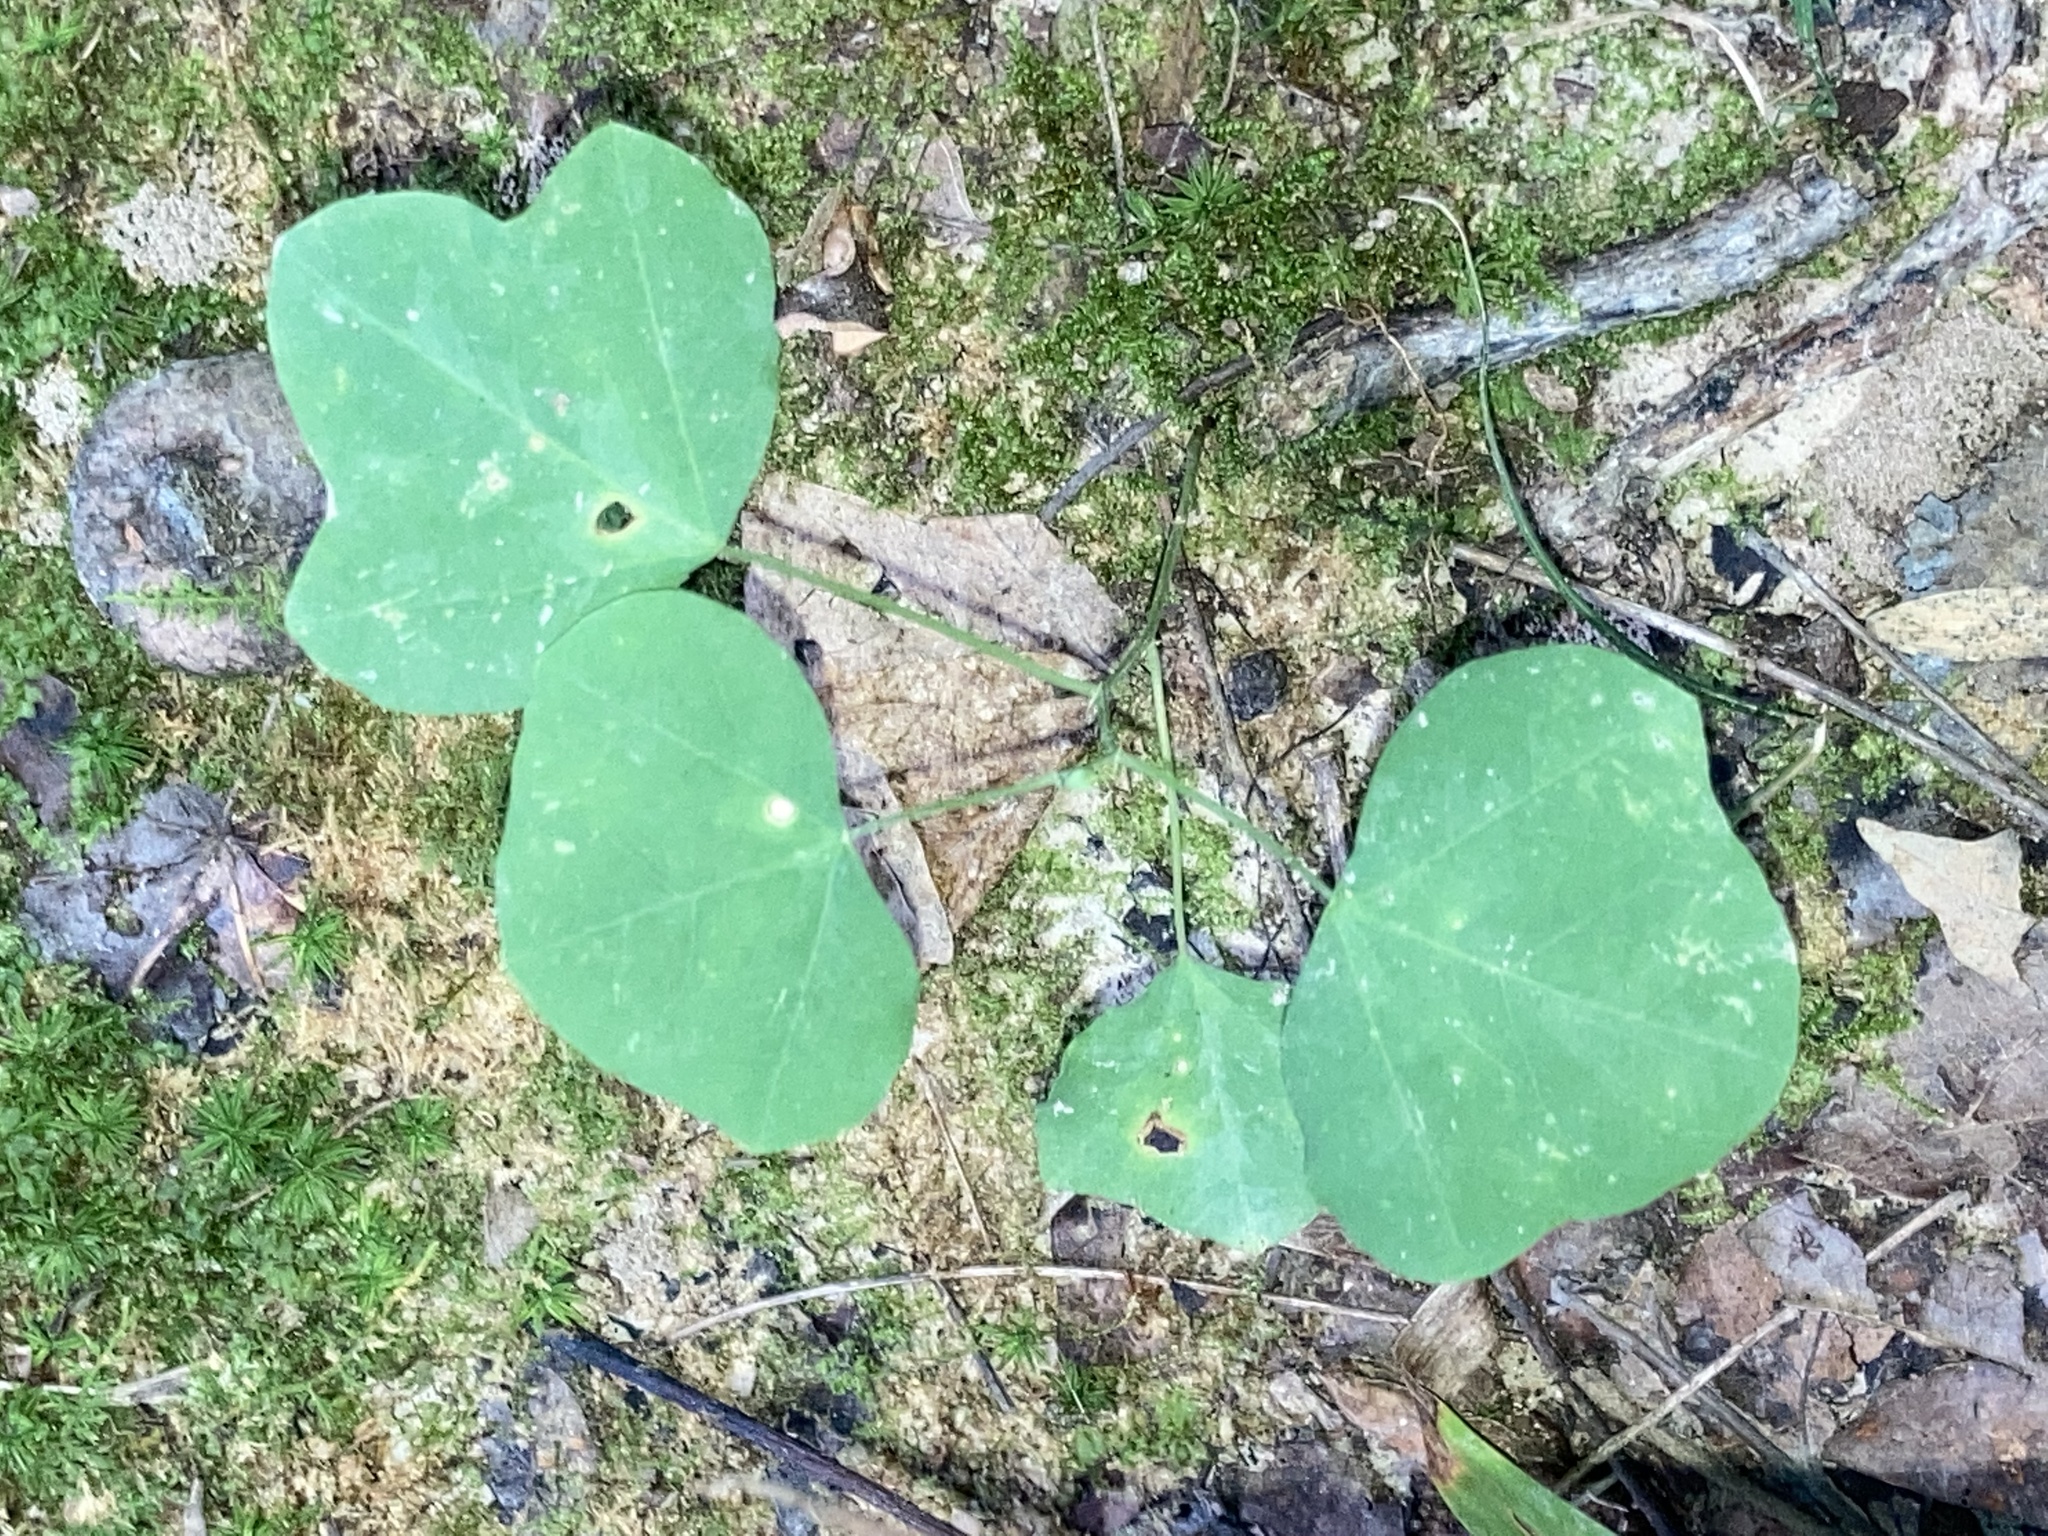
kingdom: Plantae
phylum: Tracheophyta
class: Magnoliopsida
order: Malpighiales
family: Passifloraceae
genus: Passiflora
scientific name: Passiflora lutea
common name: Yellow passionflower
